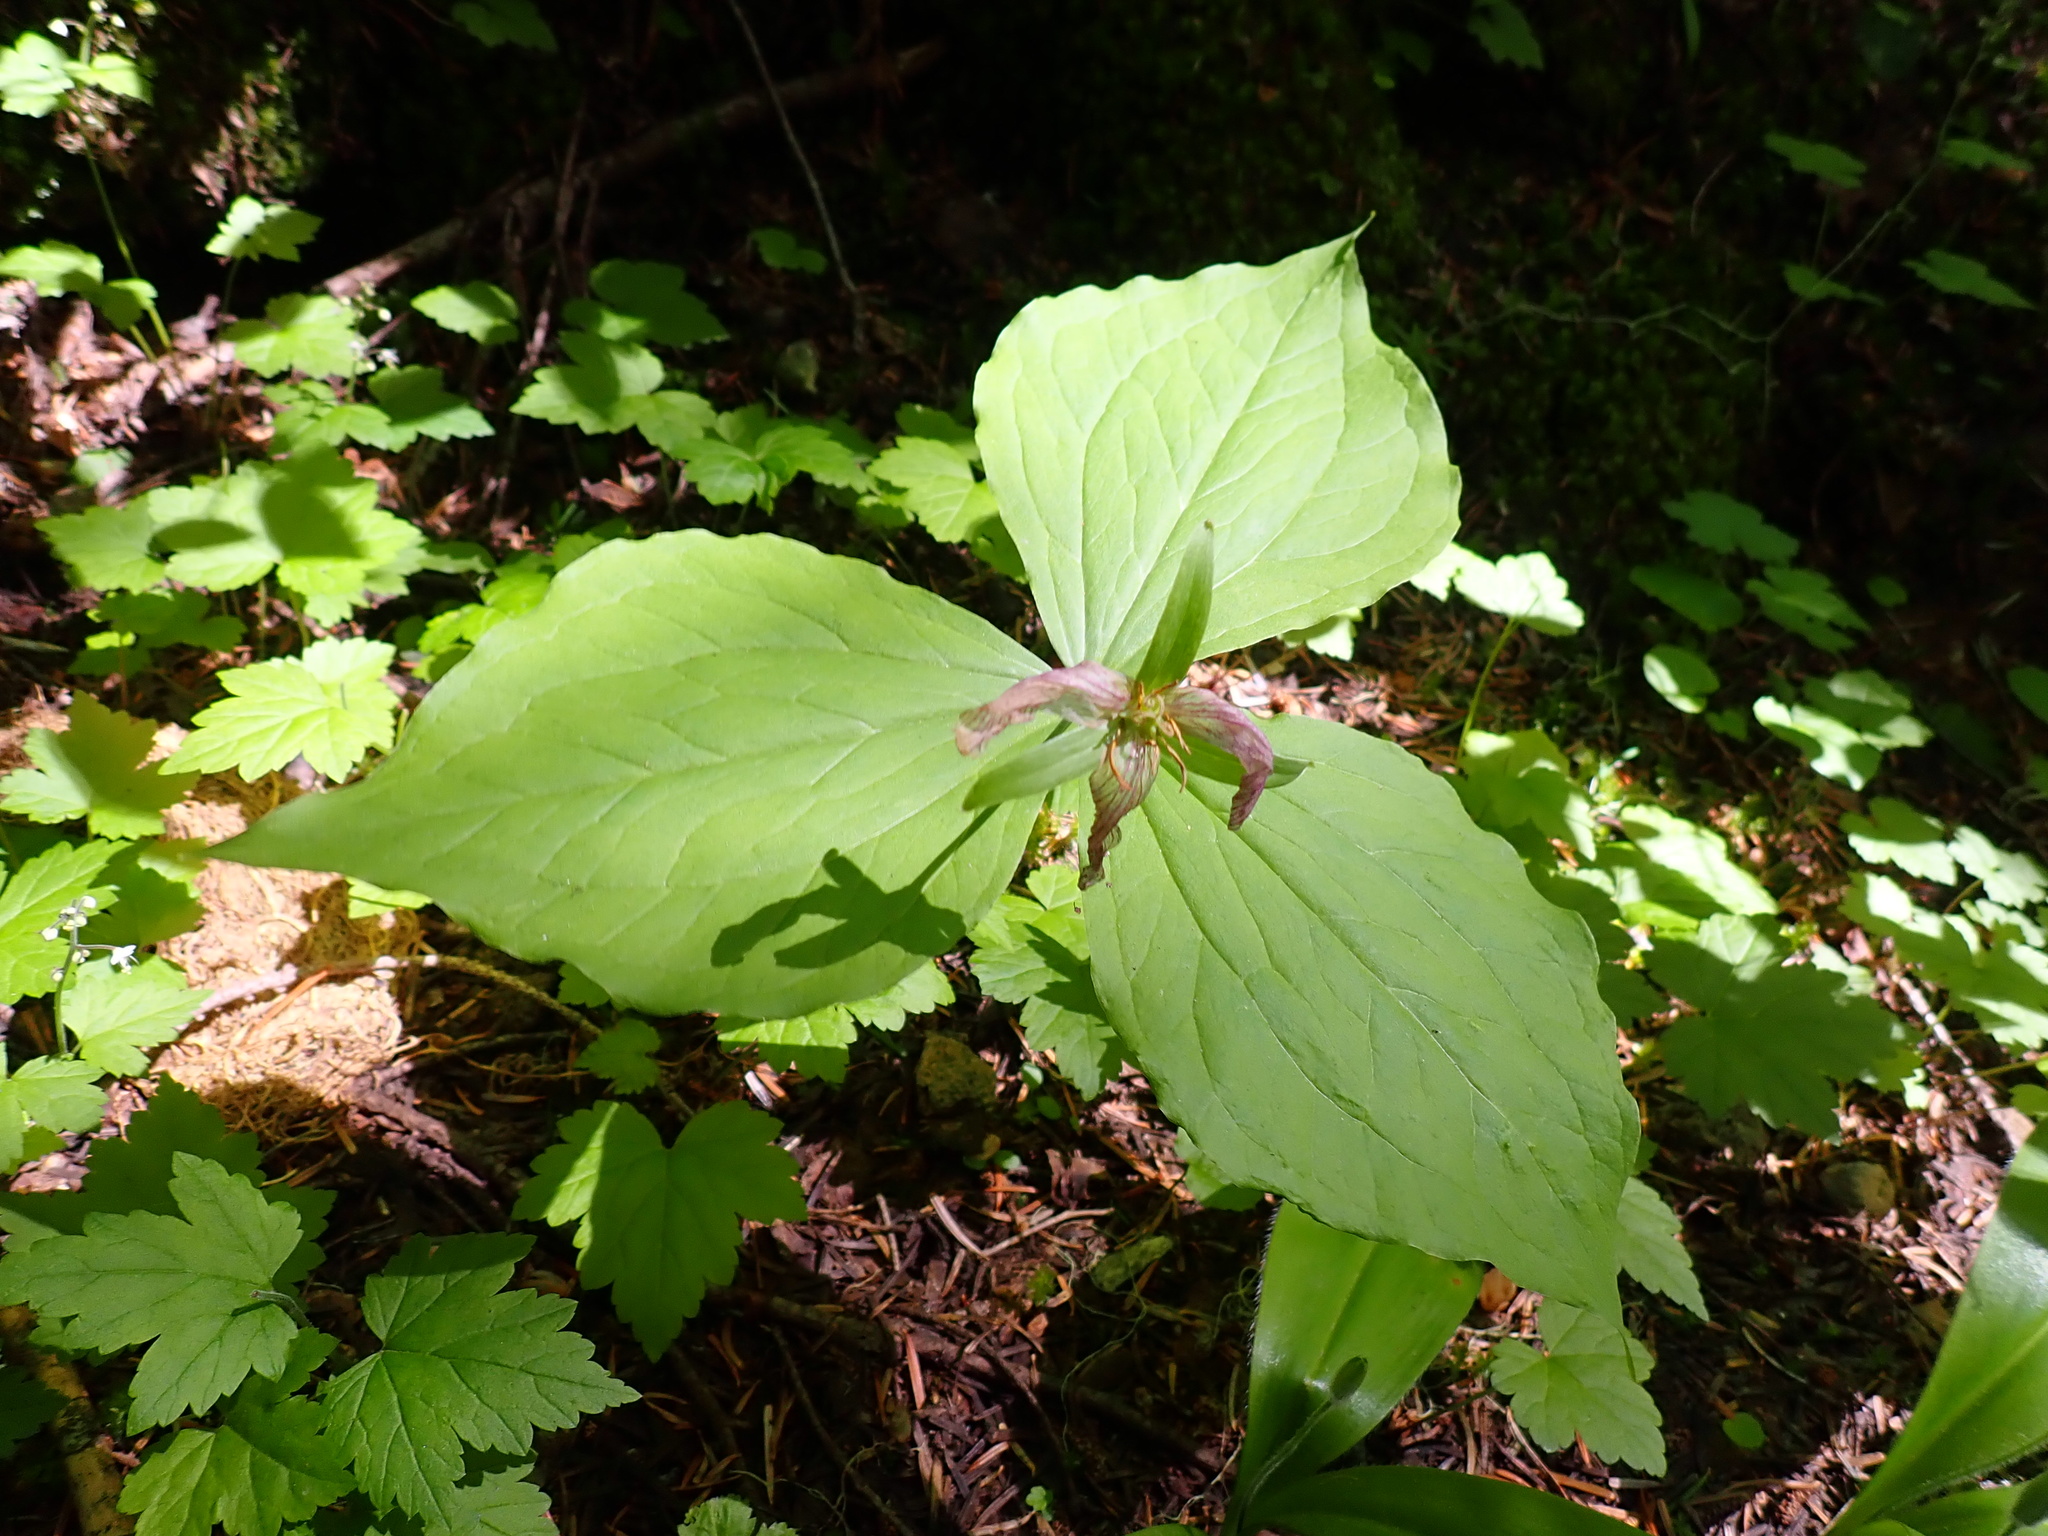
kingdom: Plantae
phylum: Tracheophyta
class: Liliopsida
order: Liliales
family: Melanthiaceae
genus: Trillium
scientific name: Trillium ovatum
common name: Pacific trillium
